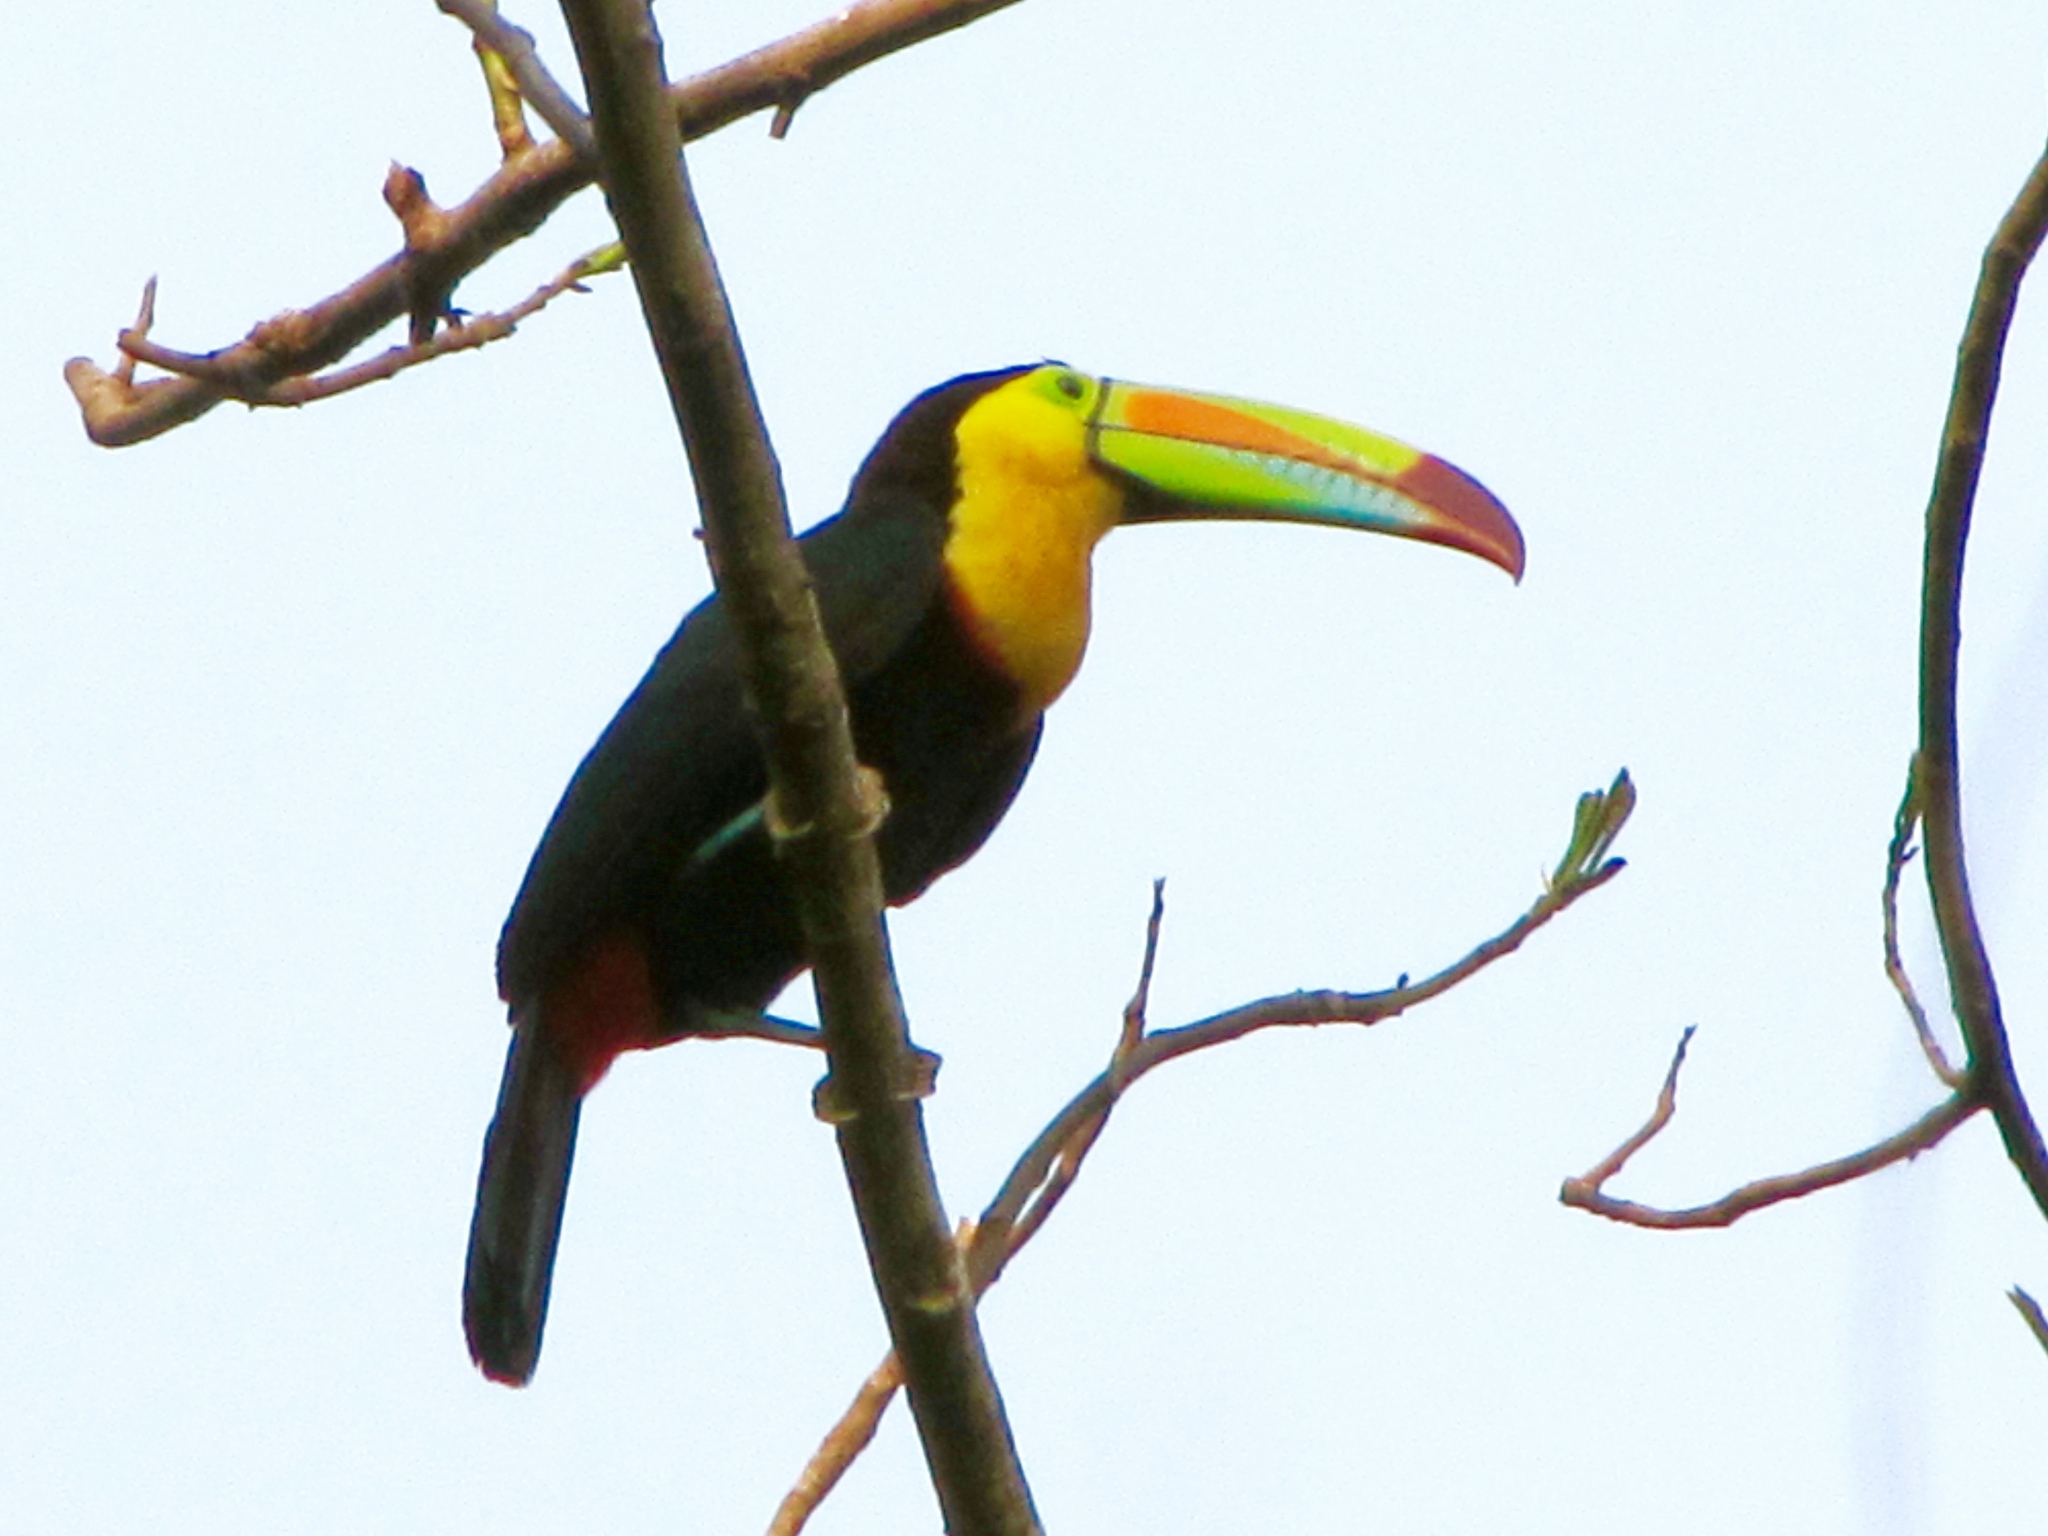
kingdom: Animalia
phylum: Chordata
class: Aves
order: Piciformes
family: Ramphastidae
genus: Ramphastos
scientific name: Ramphastos sulfuratus
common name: Keel-billed toucan
